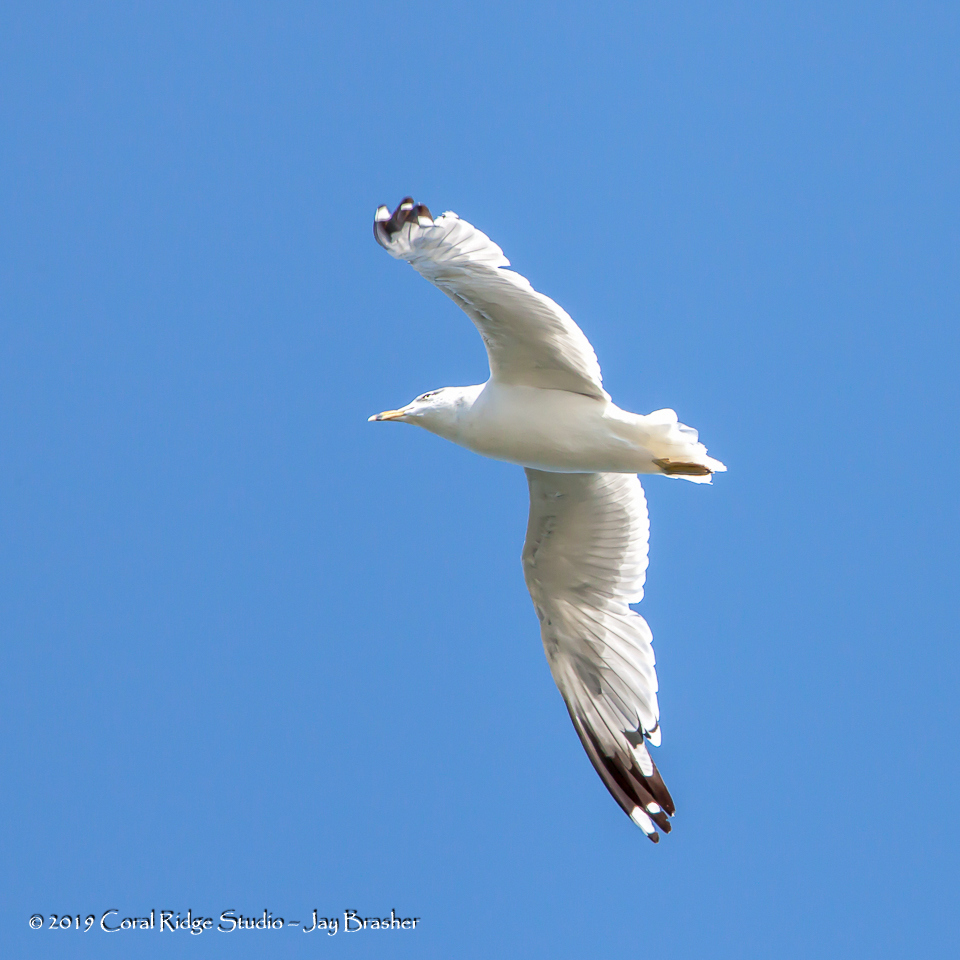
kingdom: Animalia
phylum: Chordata
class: Aves
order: Charadriiformes
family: Laridae
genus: Larus
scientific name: Larus delawarensis
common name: Ring-billed gull
